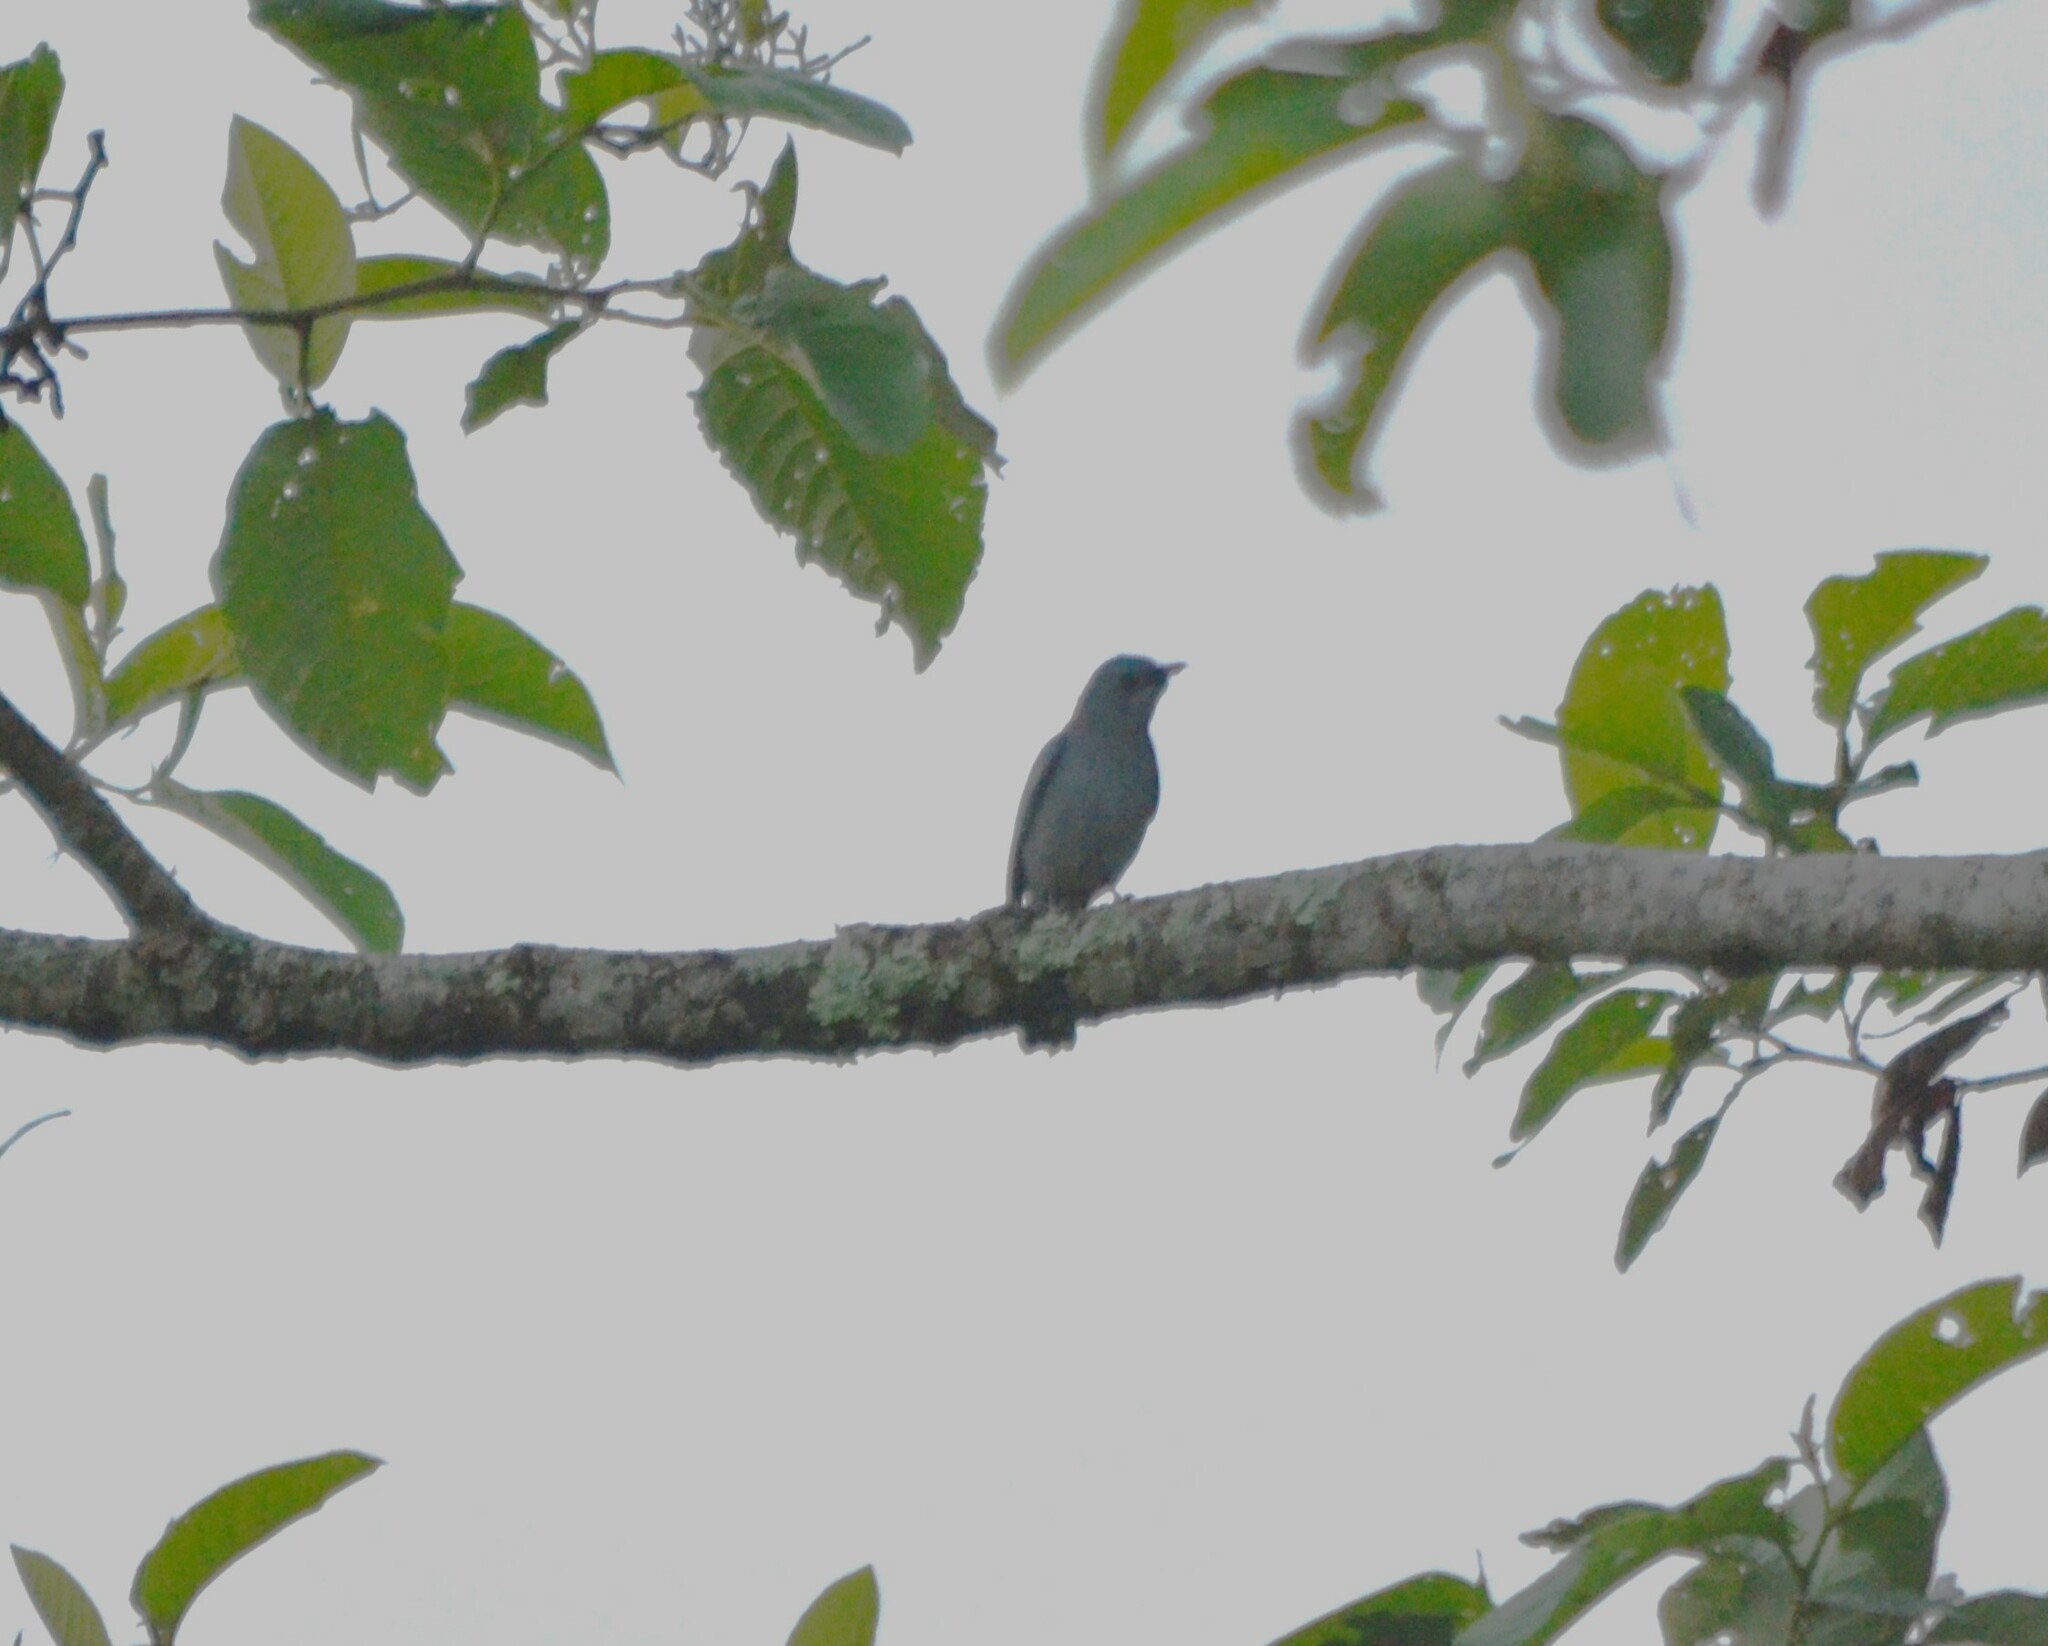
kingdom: Animalia
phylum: Chordata
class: Aves
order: Passeriformes
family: Muscicapidae
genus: Eumyias
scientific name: Eumyias thalassinus
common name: Verditer flycatcher
